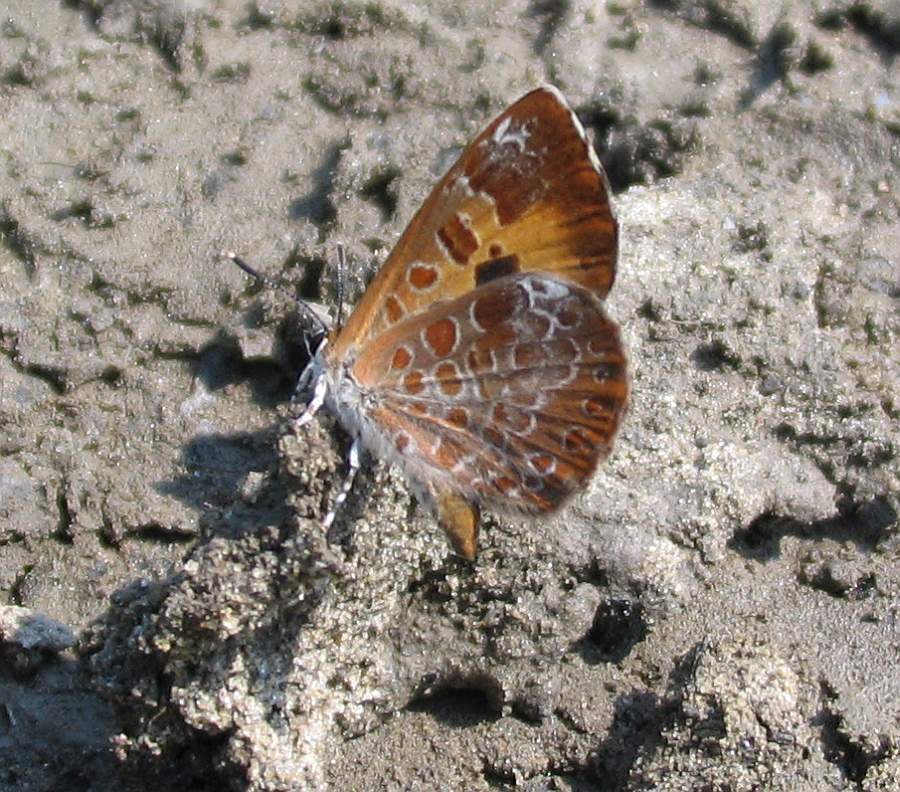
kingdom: Animalia
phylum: Arthropoda
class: Insecta
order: Lepidoptera
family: Lycaenidae
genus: Feniseca
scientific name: Feniseca tarquinius
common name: Harvester
